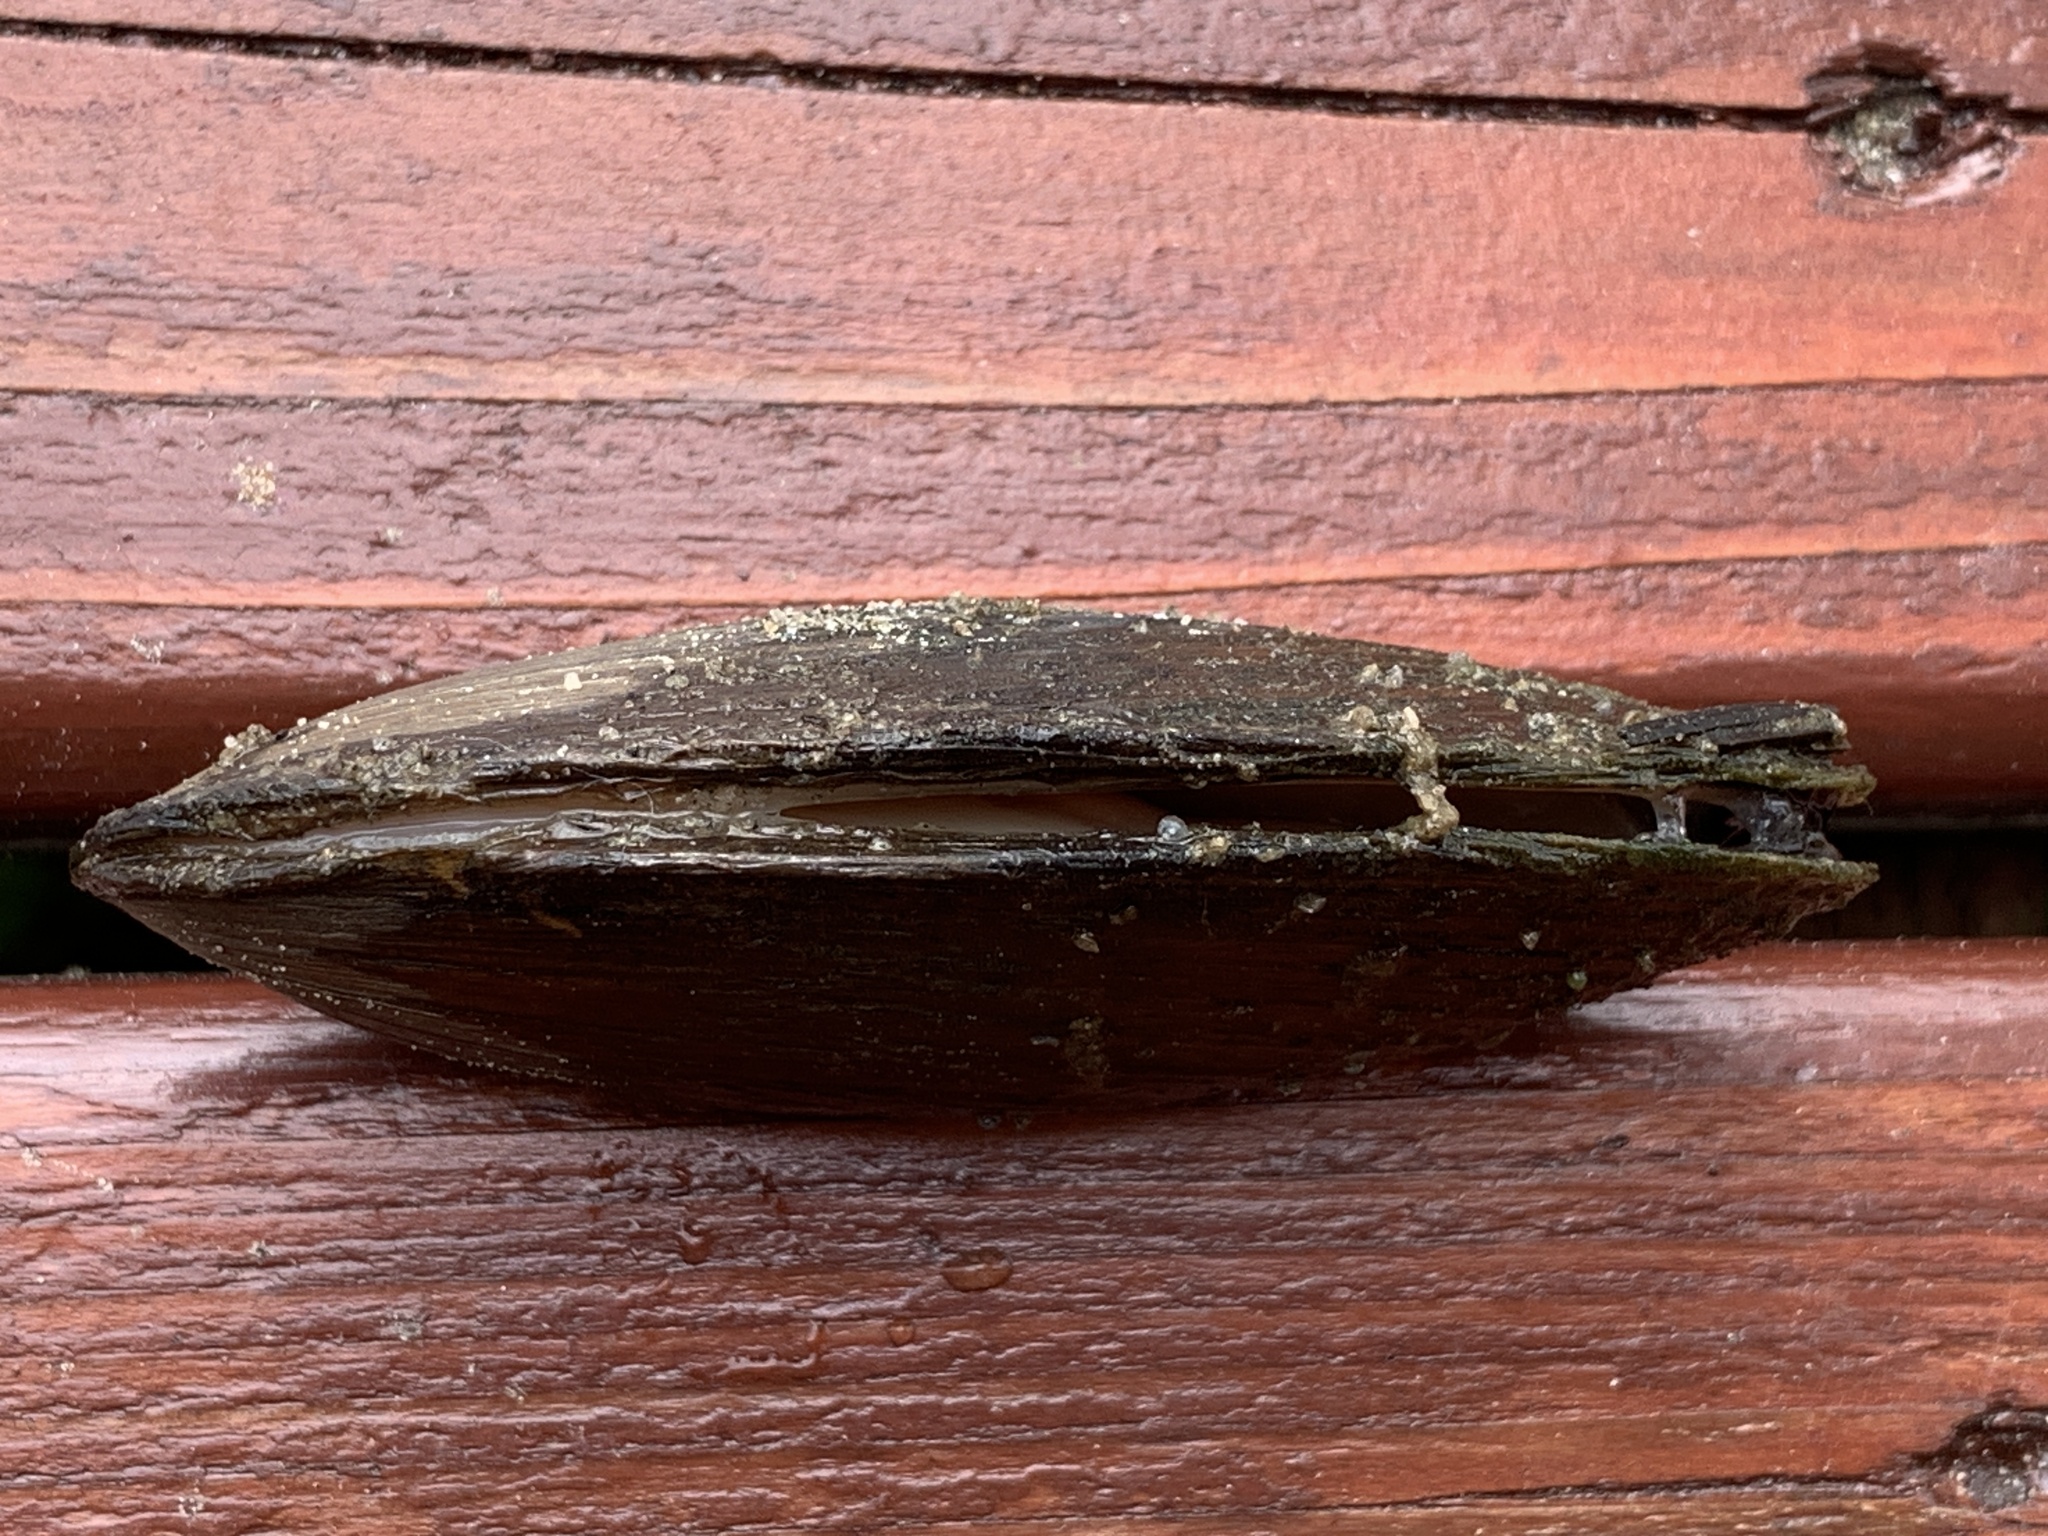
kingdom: Animalia
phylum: Mollusca
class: Bivalvia
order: Unionida
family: Unionidae
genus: Elliptio
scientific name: Elliptio complanata
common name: Eastern elliptio
